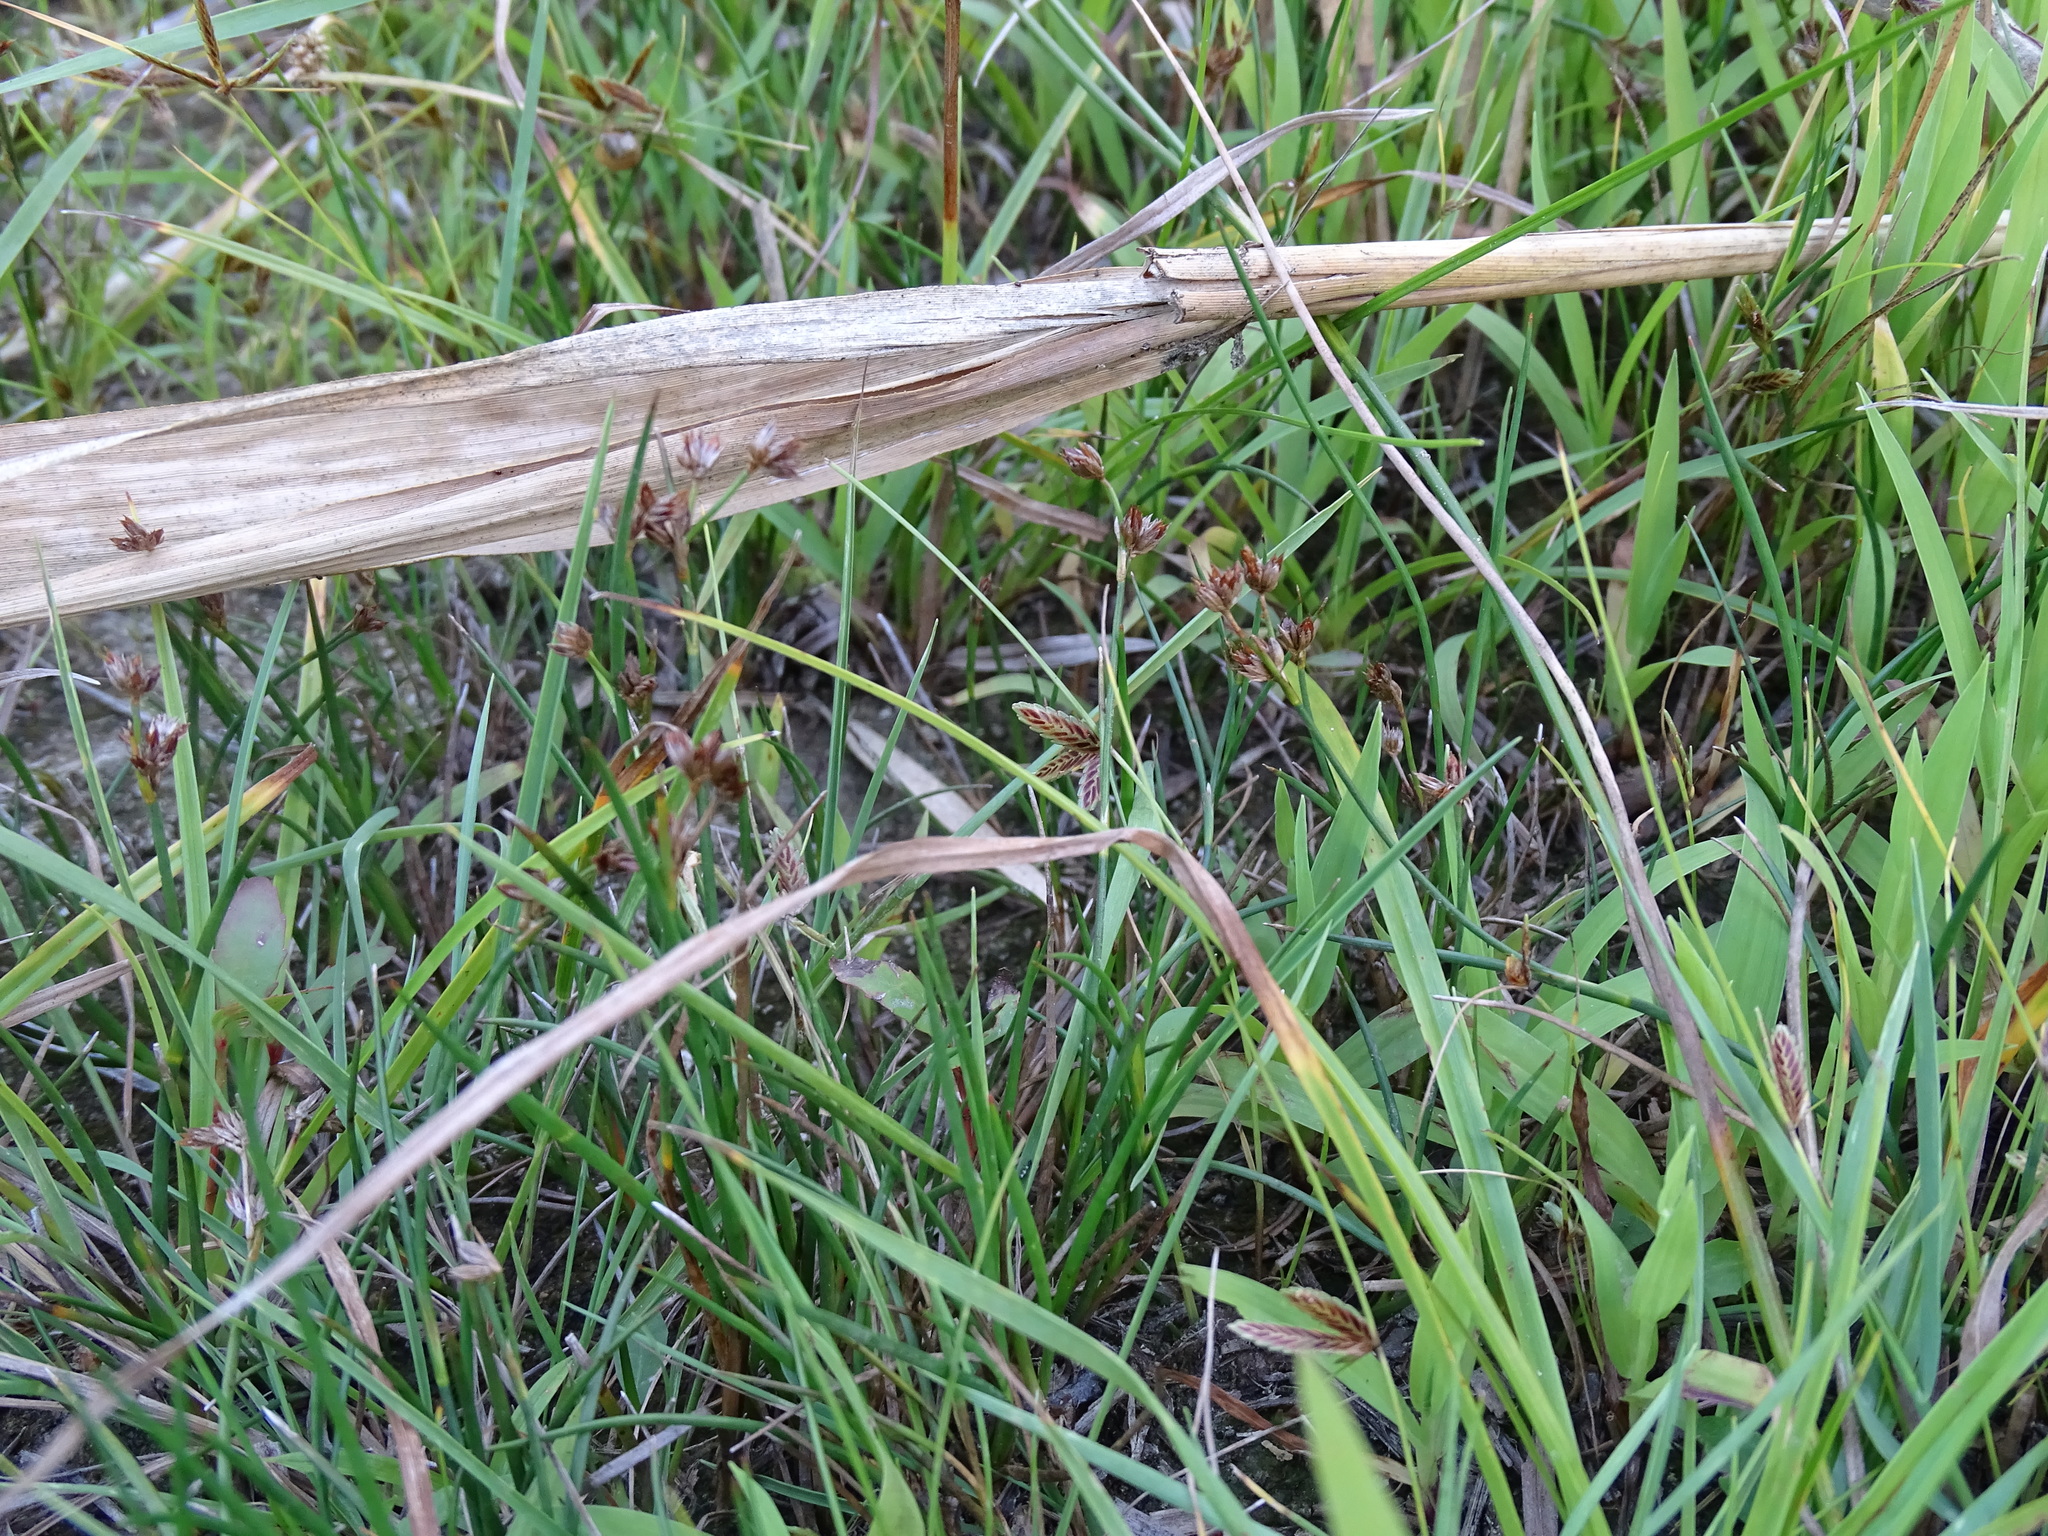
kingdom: Plantae
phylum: Tracheophyta
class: Liliopsida
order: Poales
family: Juncaceae
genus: Juncus
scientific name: Juncus articulatus
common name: Jointed rush
